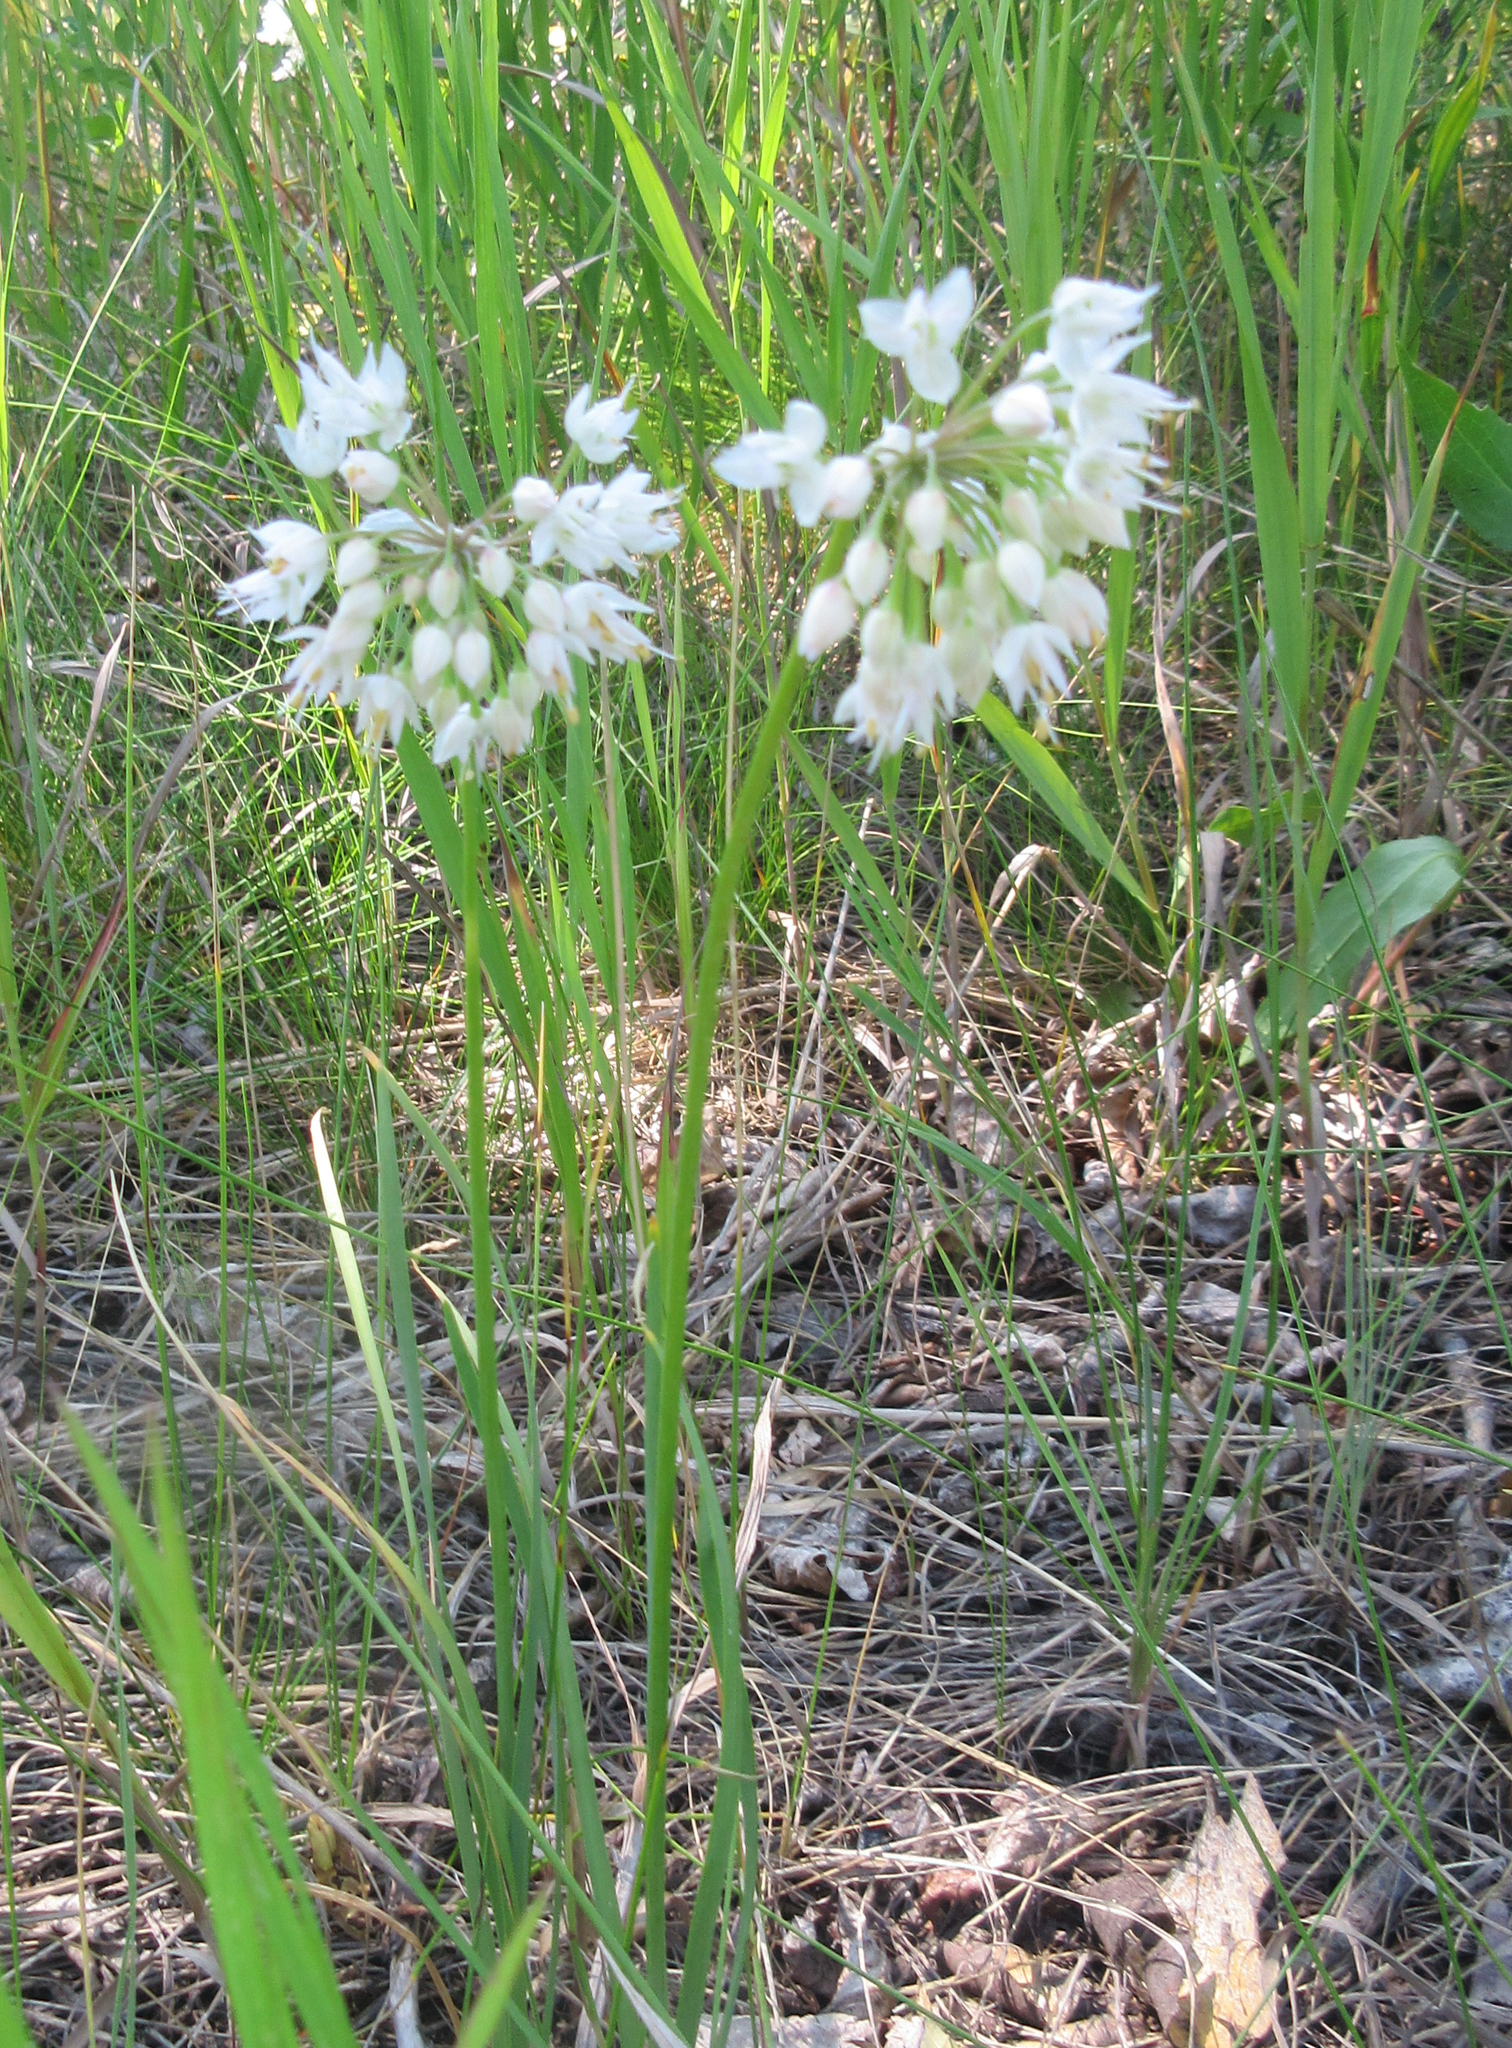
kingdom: Plantae
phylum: Tracheophyta
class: Liliopsida
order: Asparagales
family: Amaryllidaceae
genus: Allium
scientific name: Allium cernuum
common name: Nodding onion
